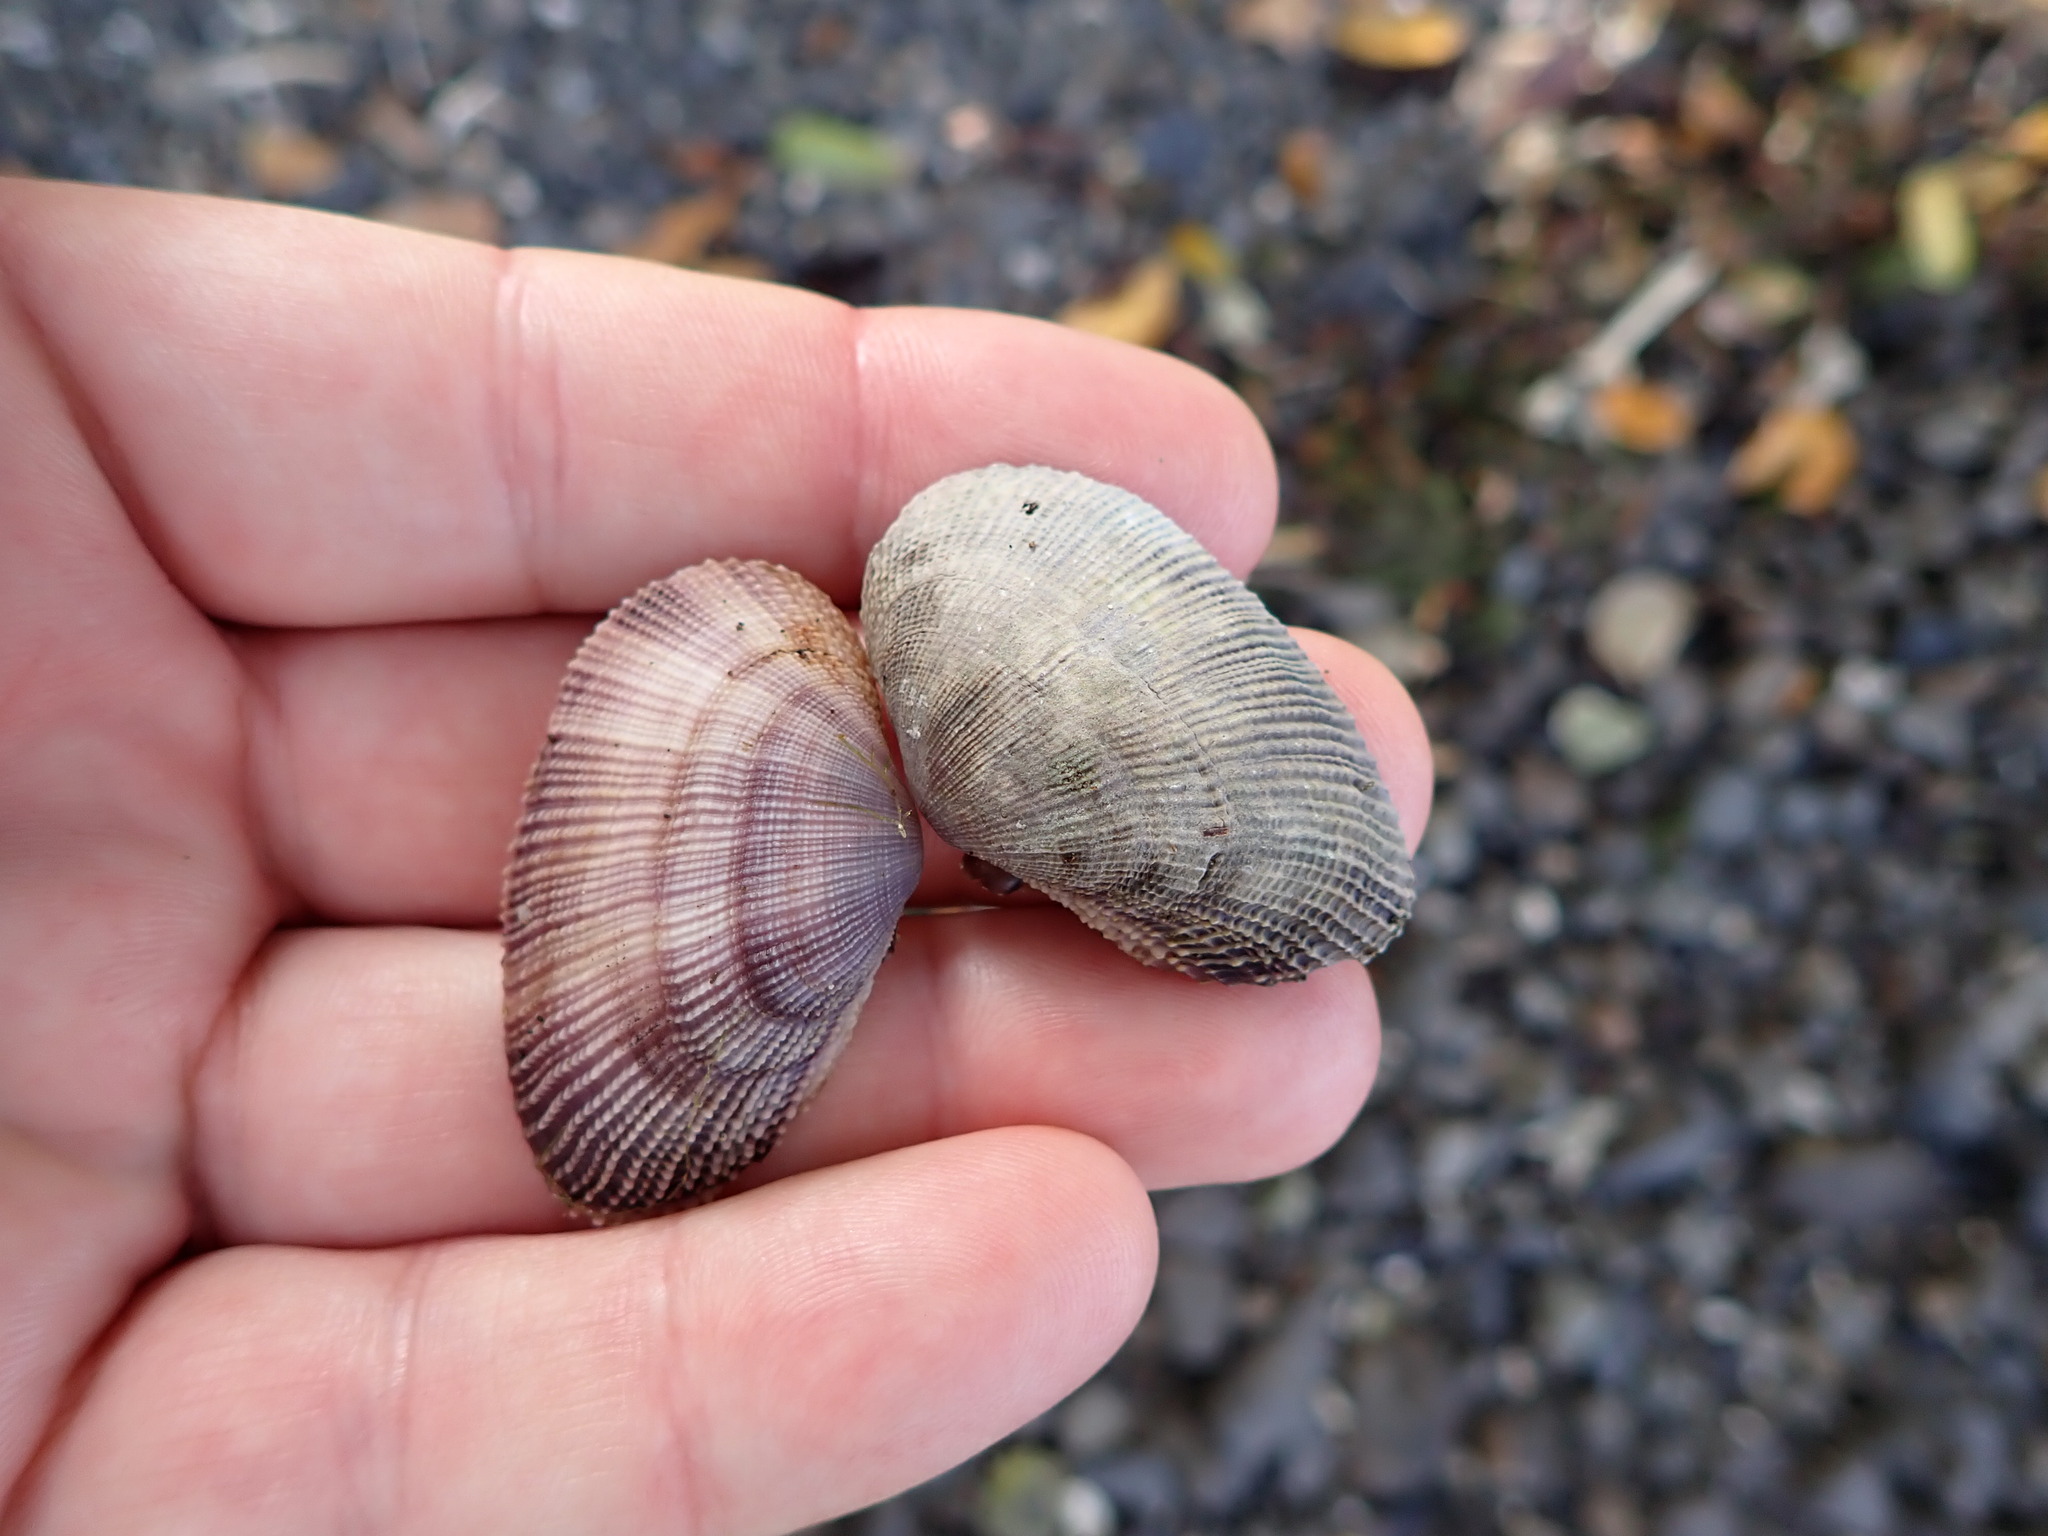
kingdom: Animalia
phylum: Mollusca
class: Bivalvia
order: Cardiida
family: Psammobiidae
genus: Asaphis
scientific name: Asaphis violascens
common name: Pacific asaphis
